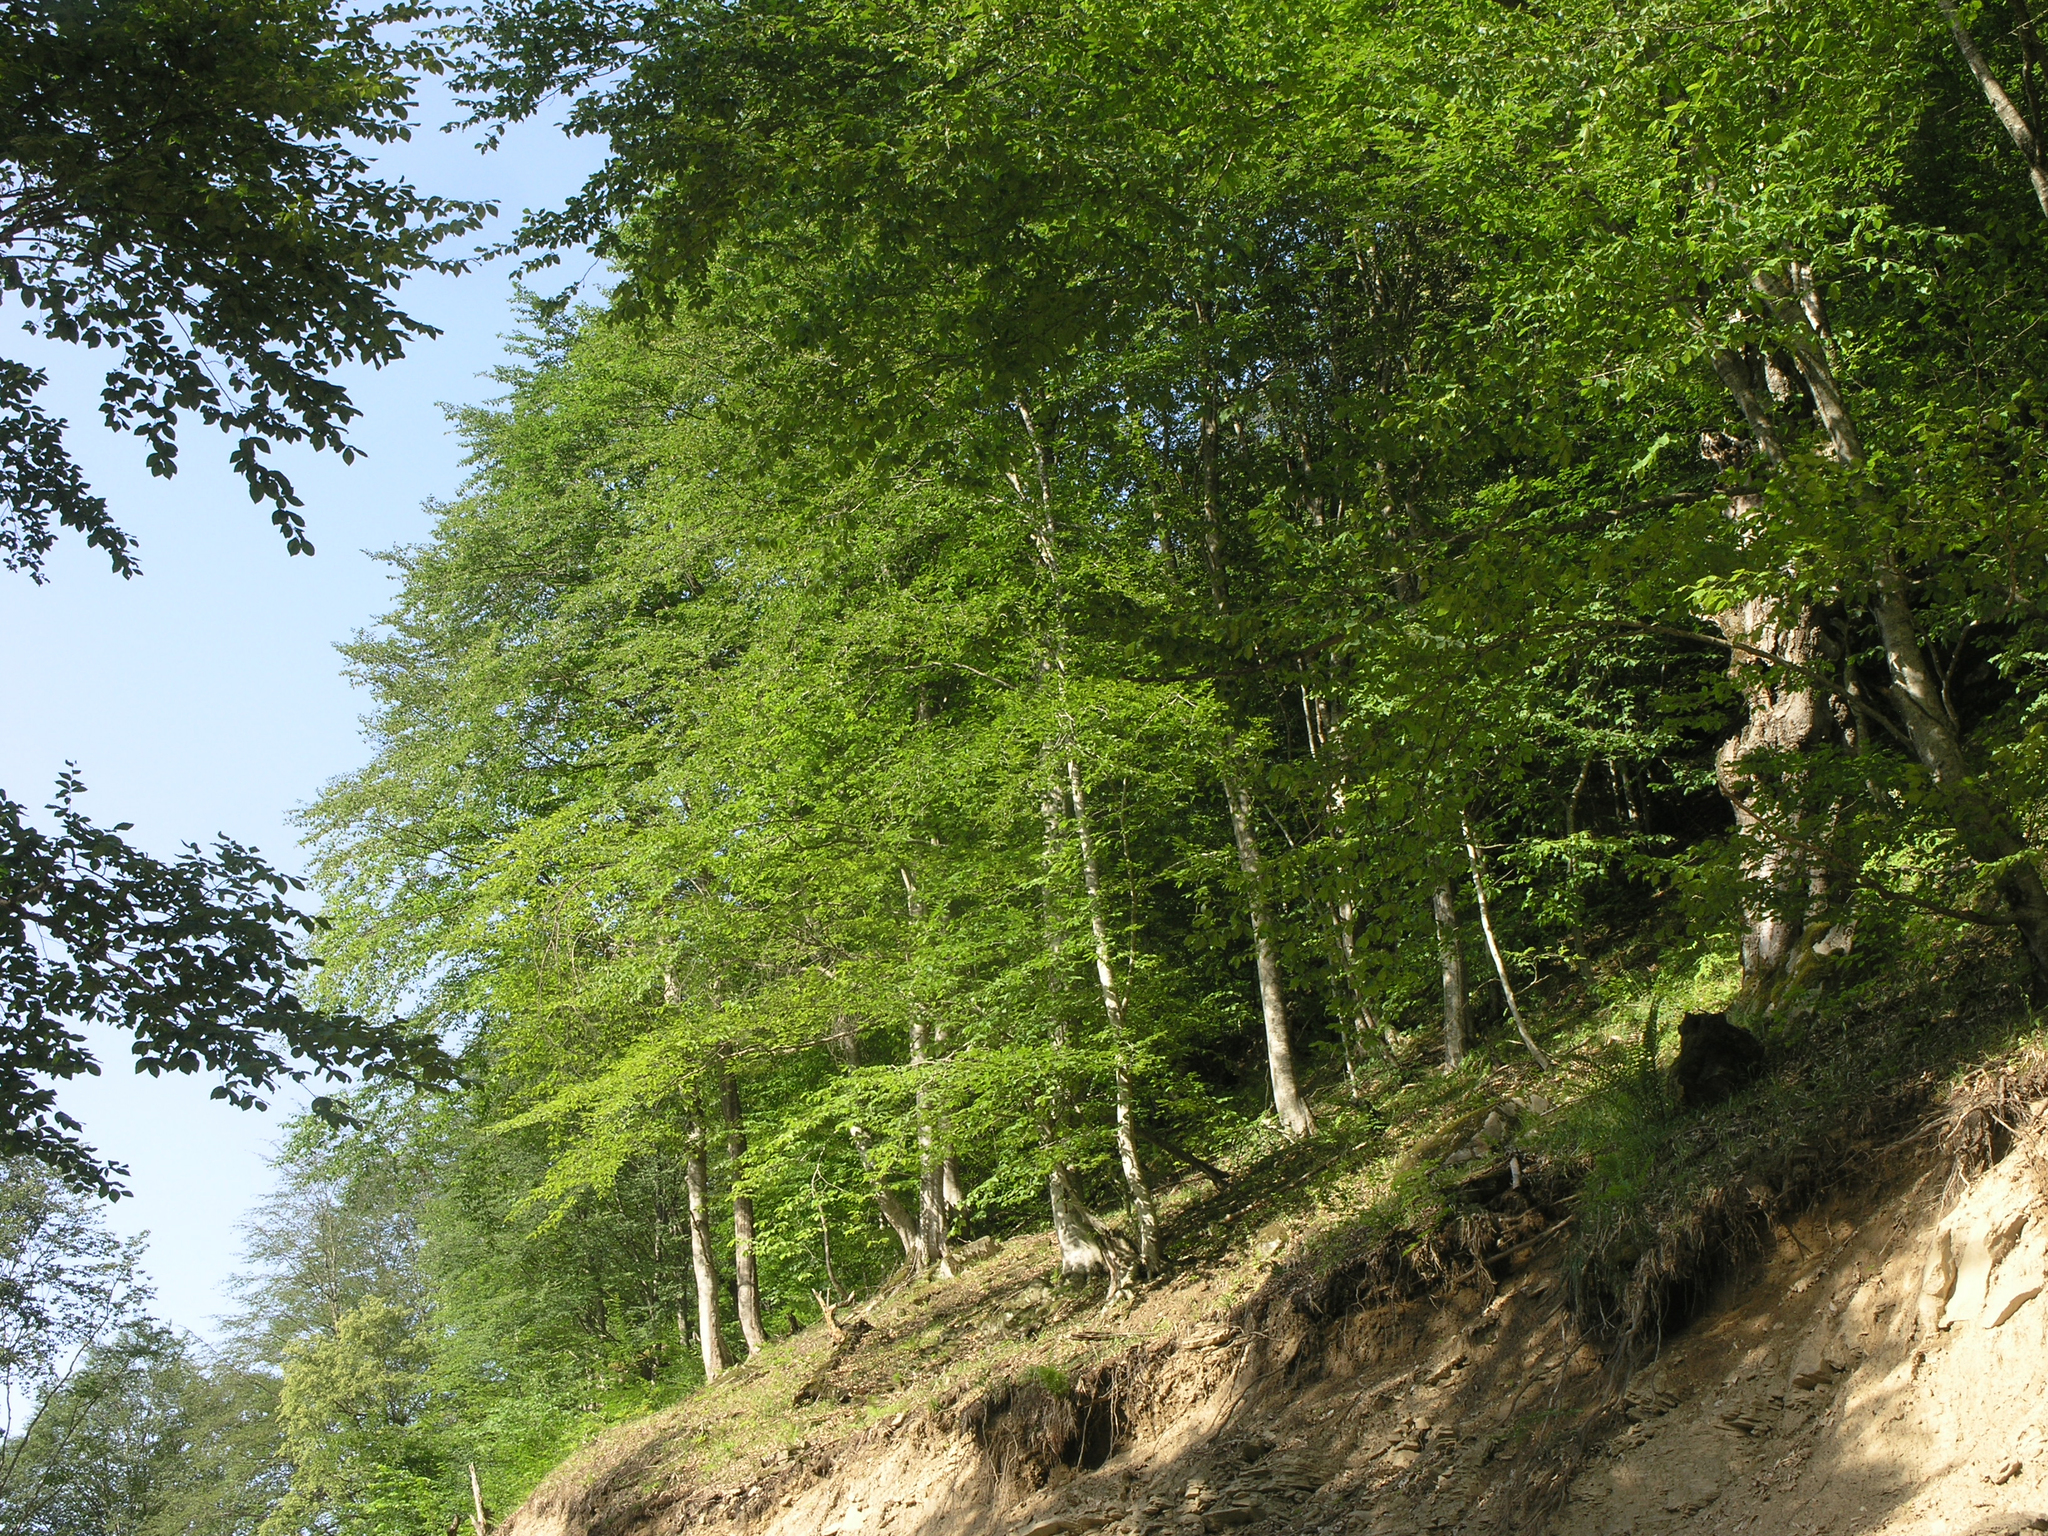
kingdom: Plantae
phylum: Tracheophyta
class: Magnoliopsida
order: Fagales
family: Fagaceae
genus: Fagus
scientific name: Fagus orientalis
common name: Oriental beech
